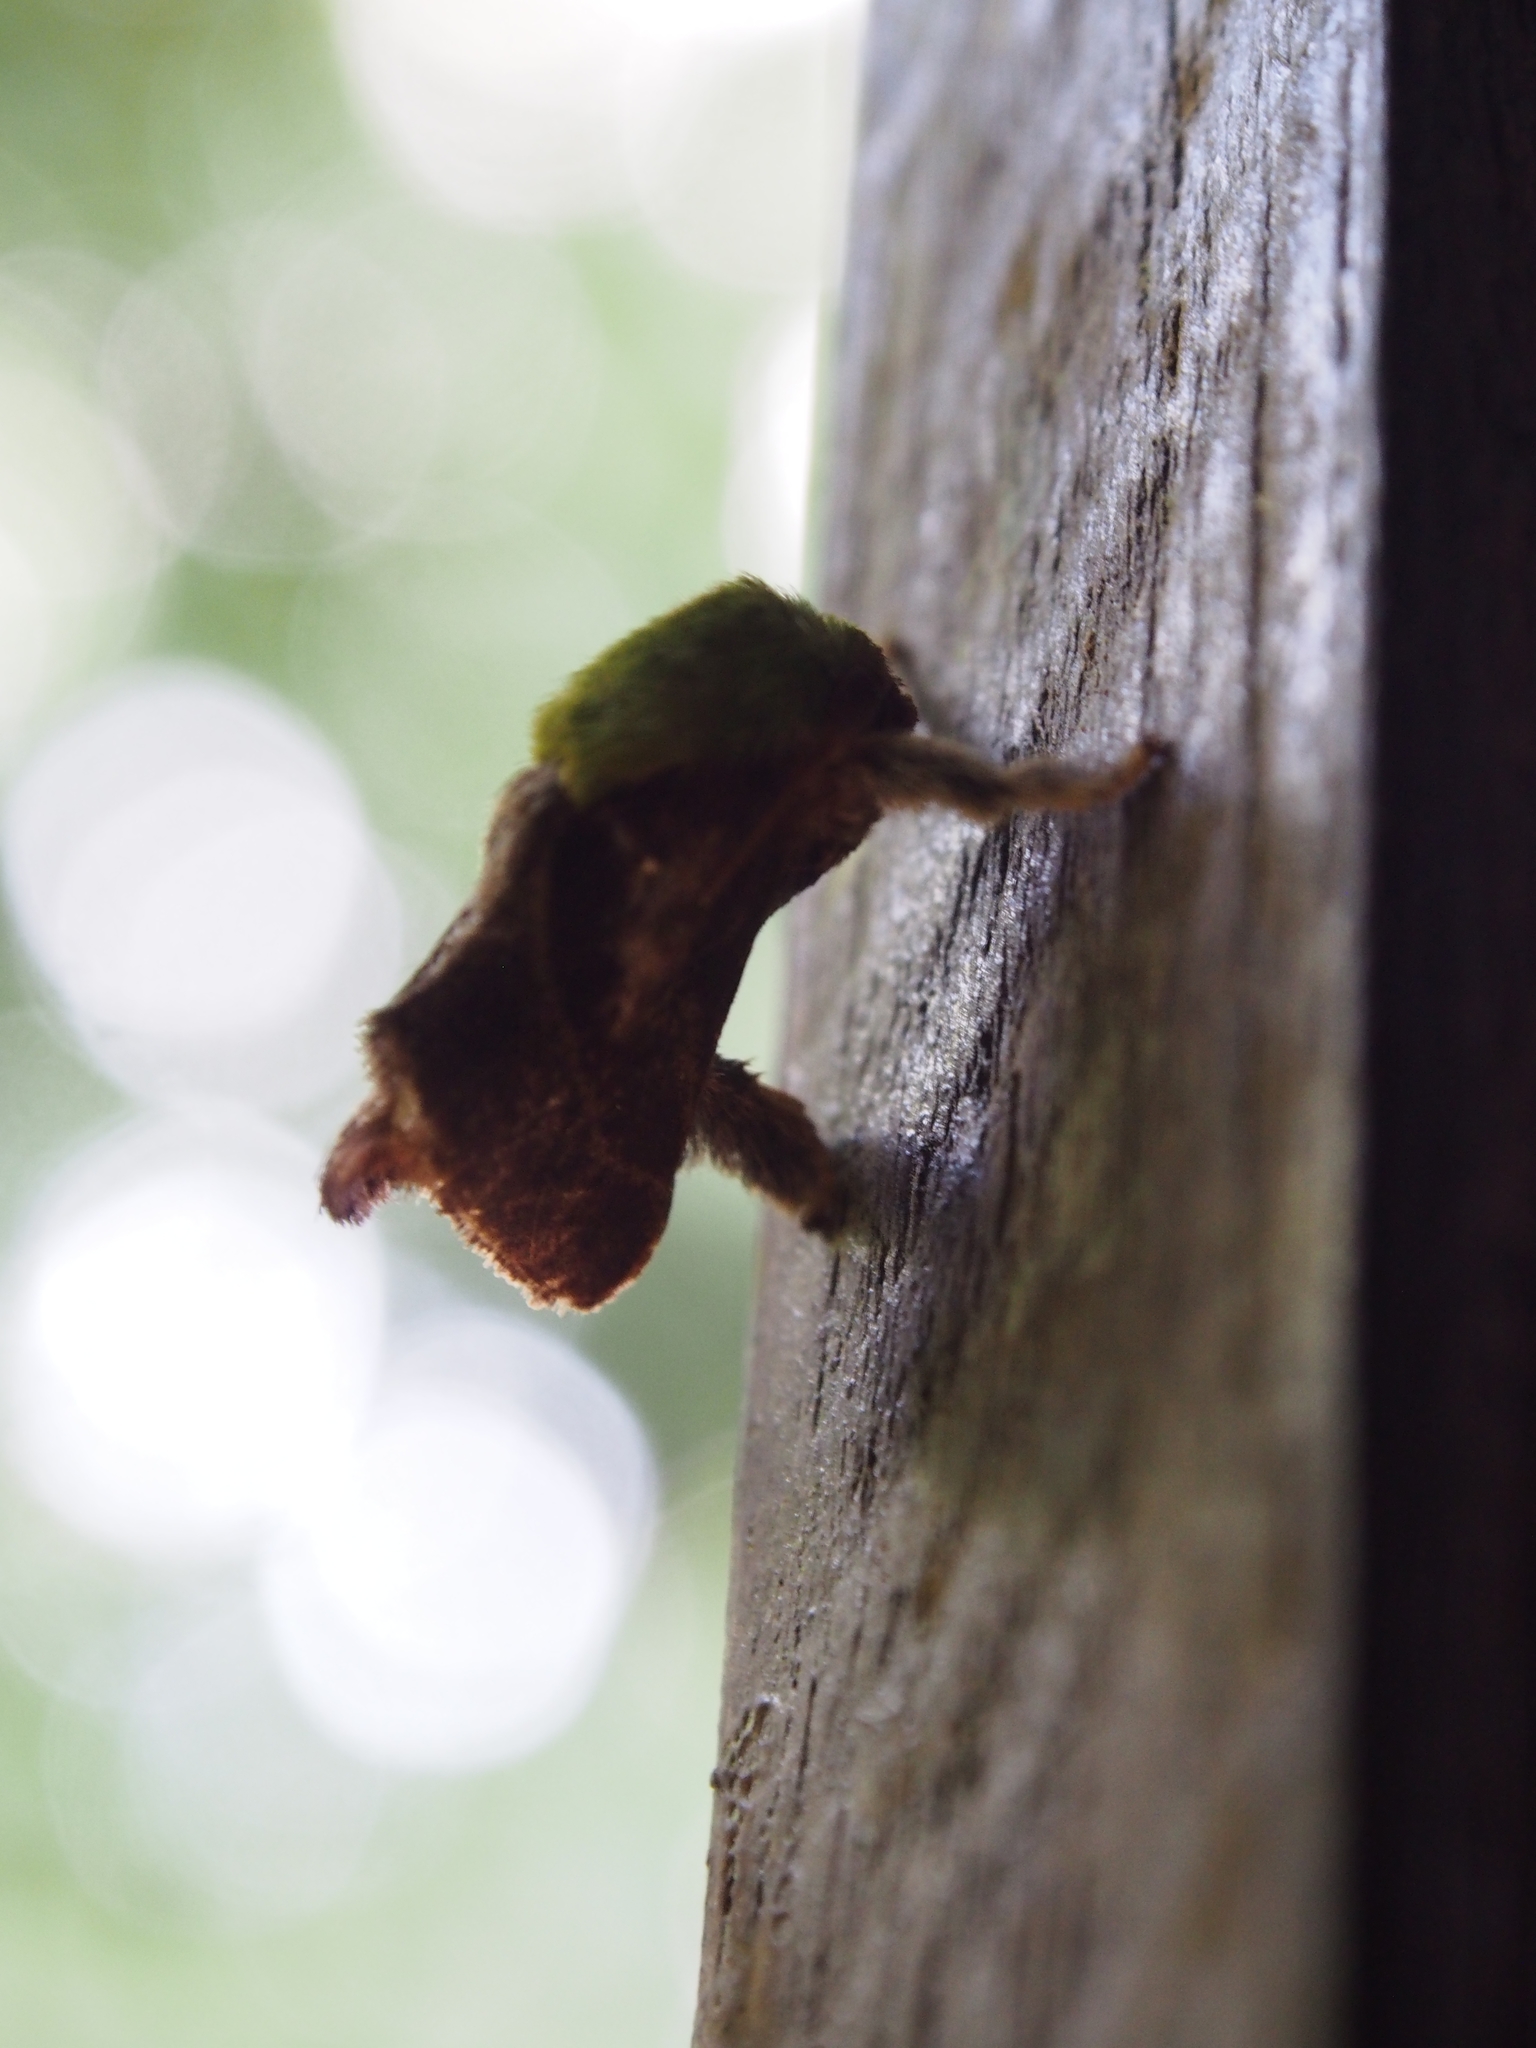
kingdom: Animalia
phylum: Arthropoda
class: Insecta
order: Lepidoptera
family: Limacodidae
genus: Parasa
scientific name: Parasa viridogrisea
